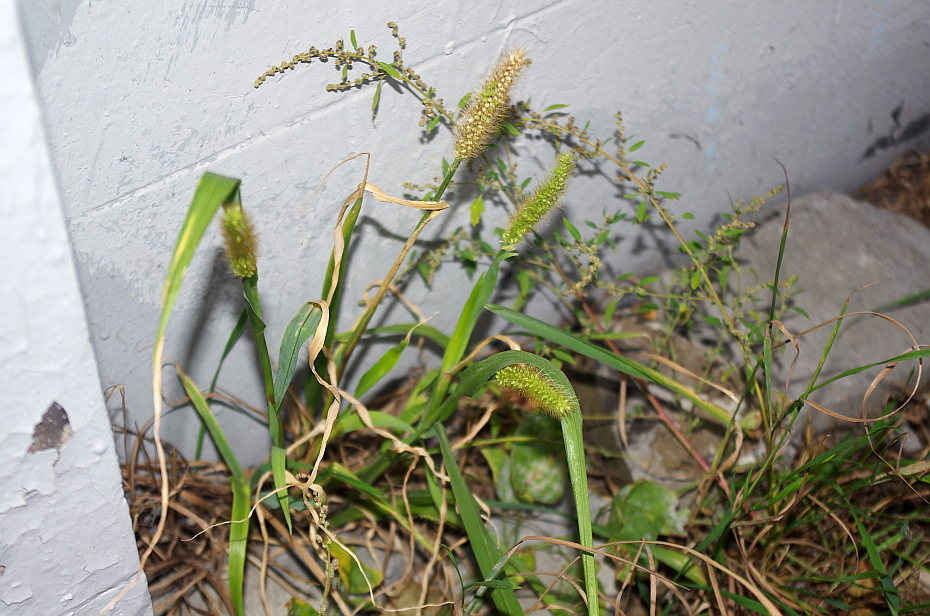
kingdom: Plantae
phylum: Tracheophyta
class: Liliopsida
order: Poales
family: Poaceae
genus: Setaria
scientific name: Setaria pumila
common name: Yellow bristle-grass
